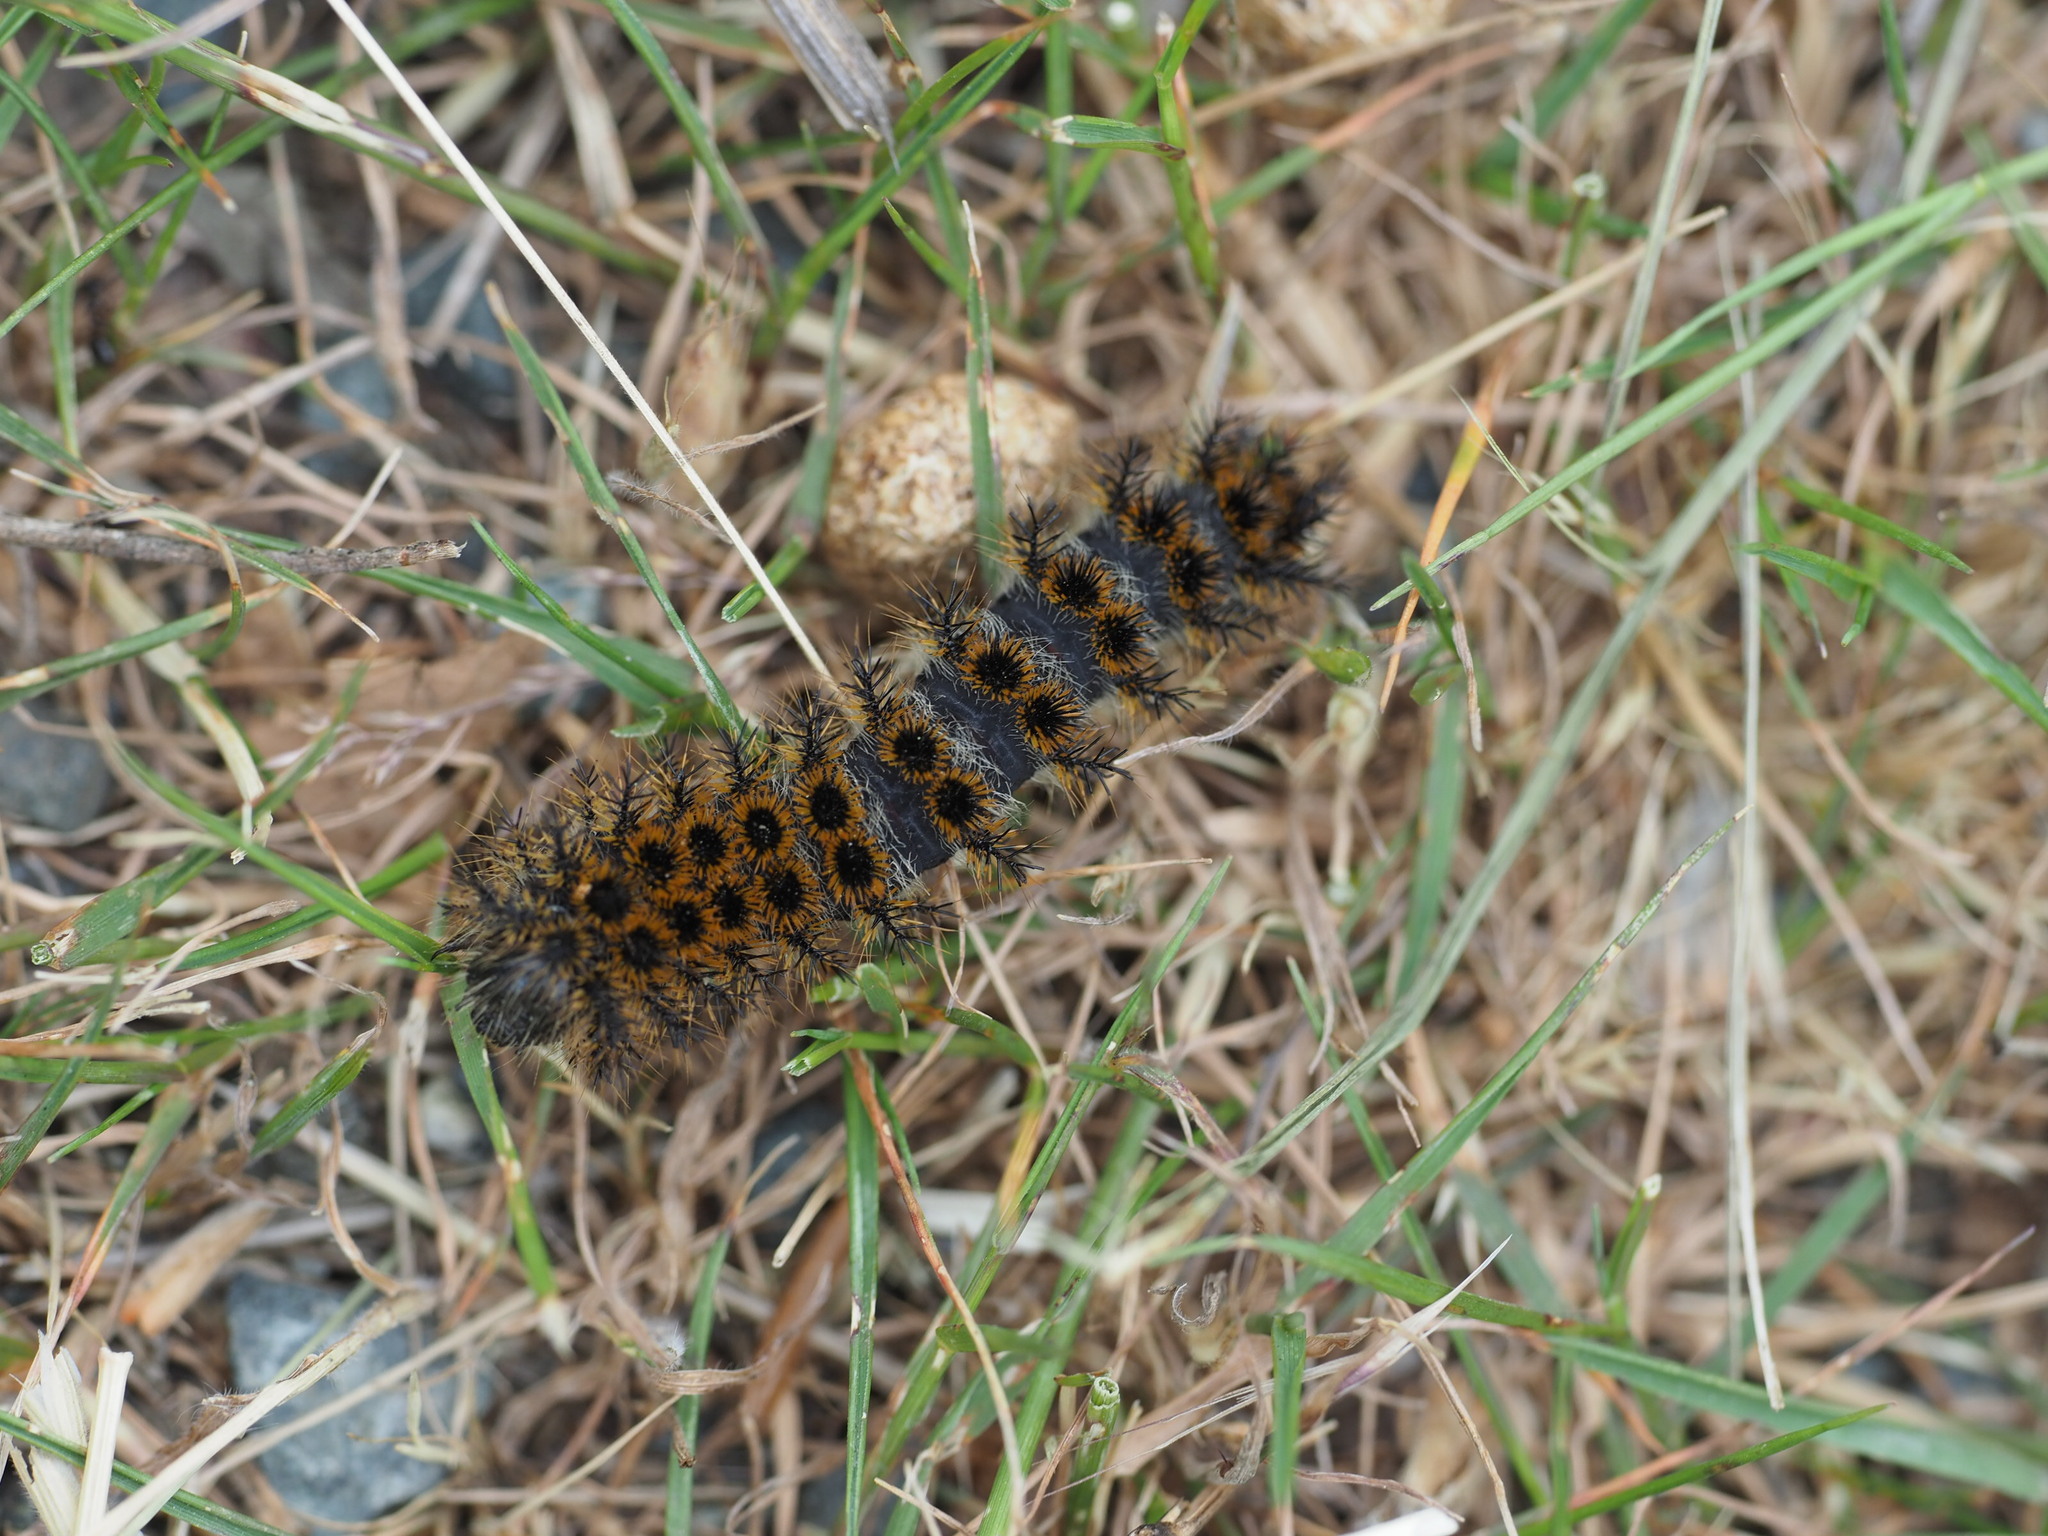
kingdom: Animalia
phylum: Arthropoda
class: Insecta
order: Lepidoptera
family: Saturniidae
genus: Hemileuca
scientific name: Hemileuca eglanterina
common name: Western sheepmoth
